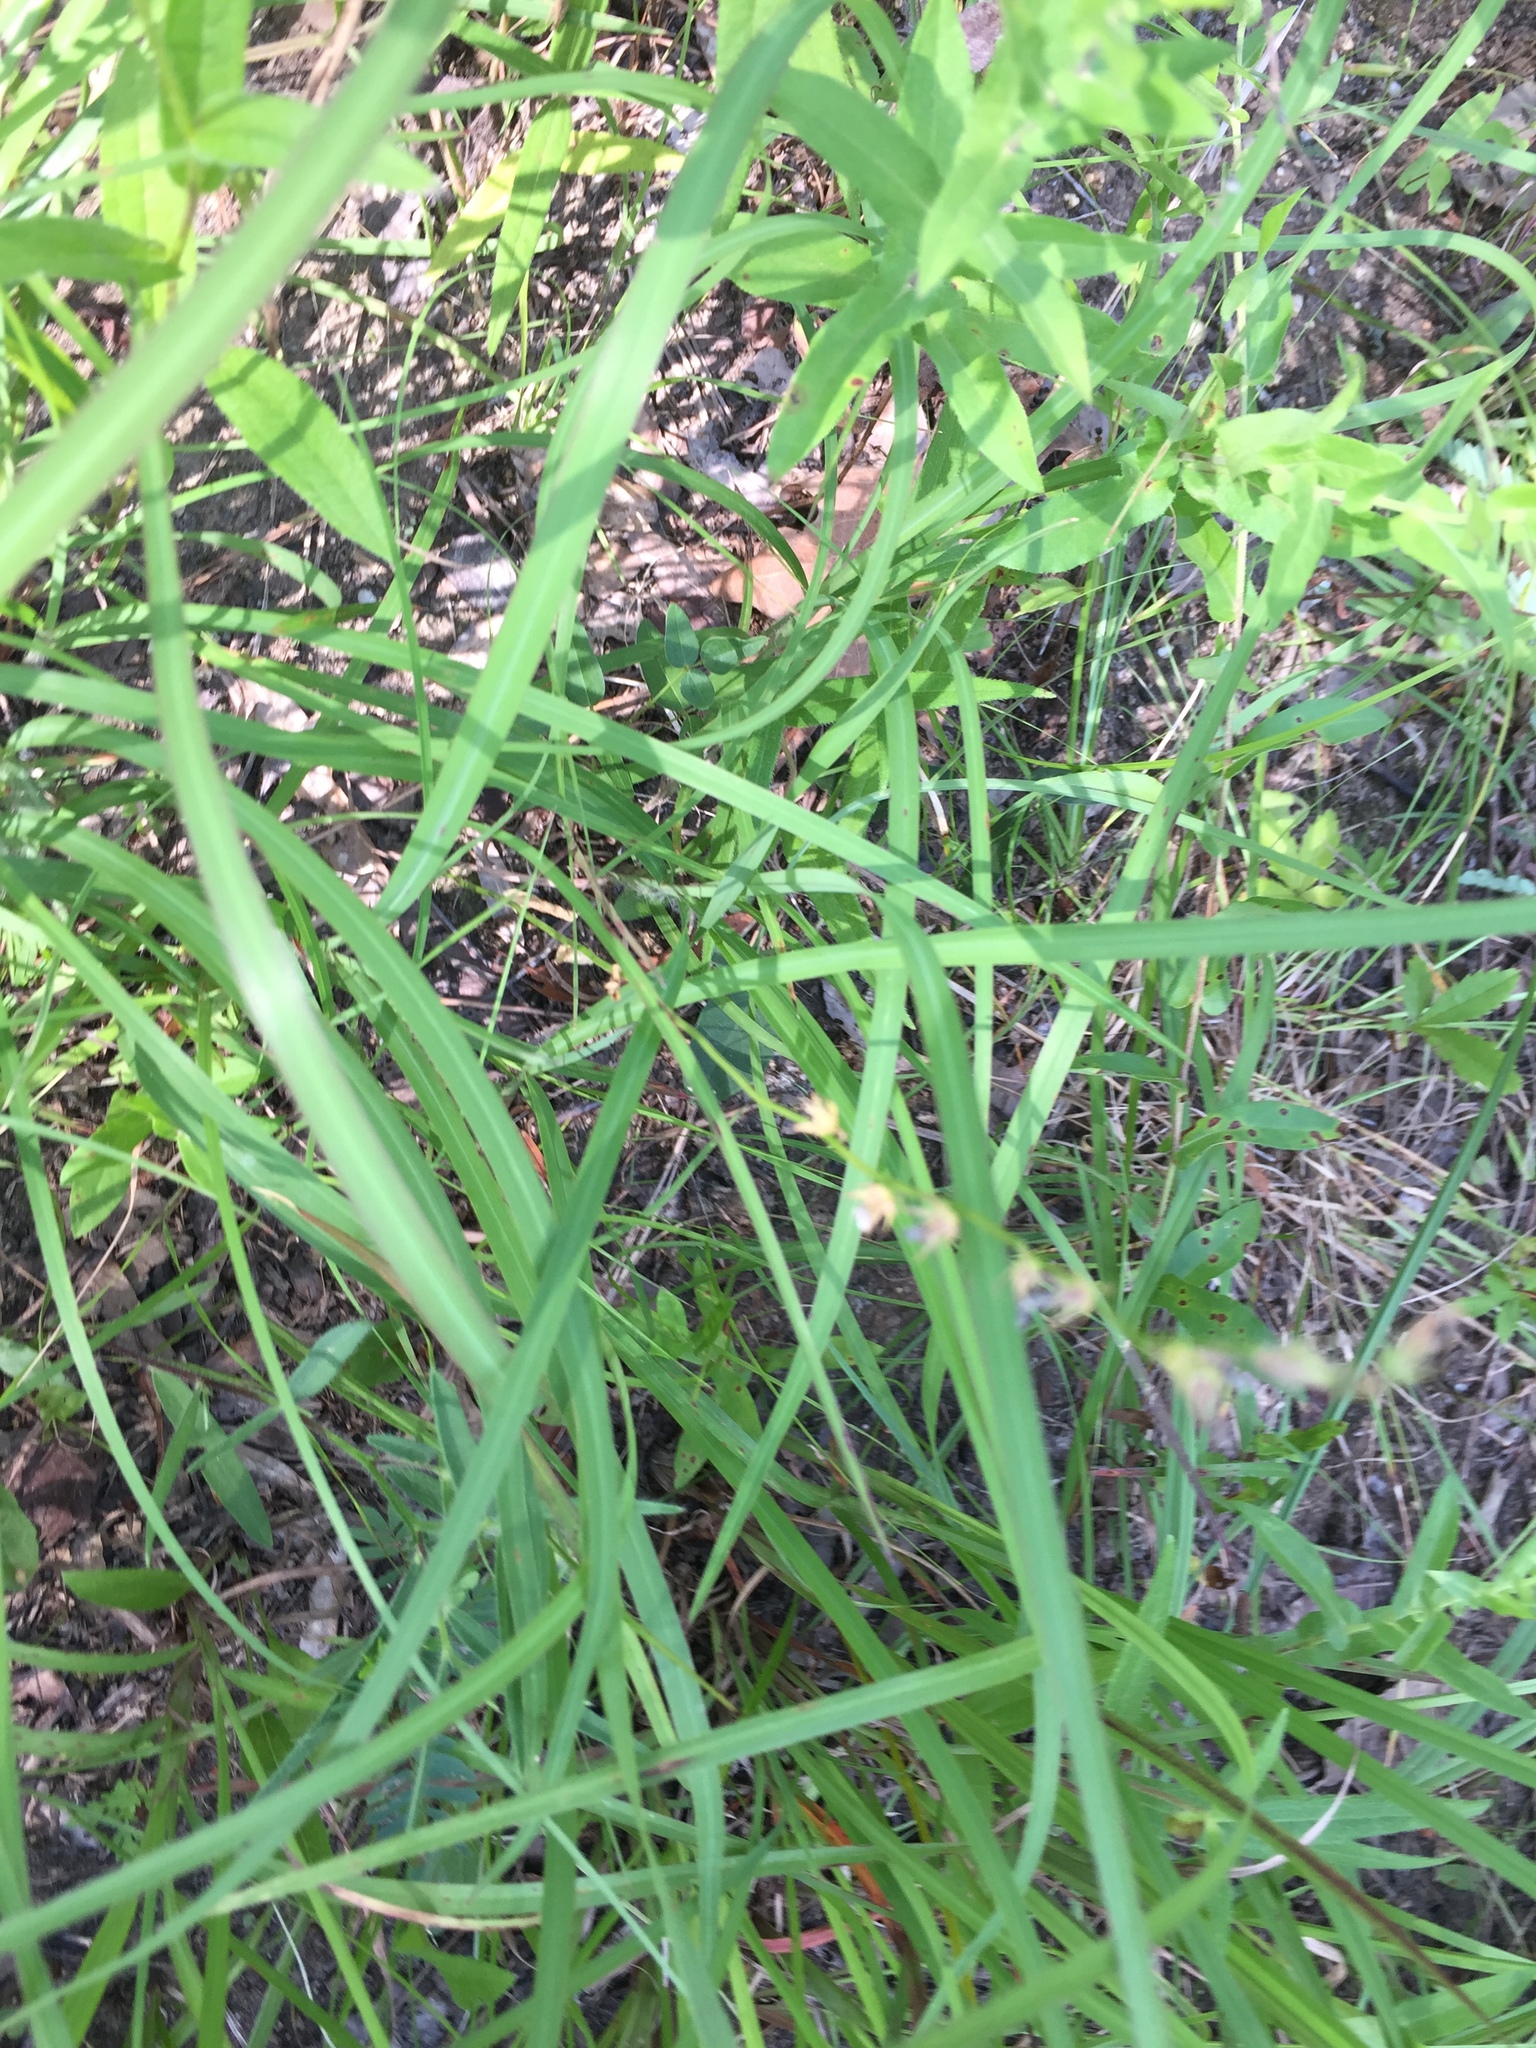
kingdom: Plantae
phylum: Tracheophyta
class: Magnoliopsida
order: Asterales
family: Campanulaceae
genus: Lobelia
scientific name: Lobelia appendiculata
